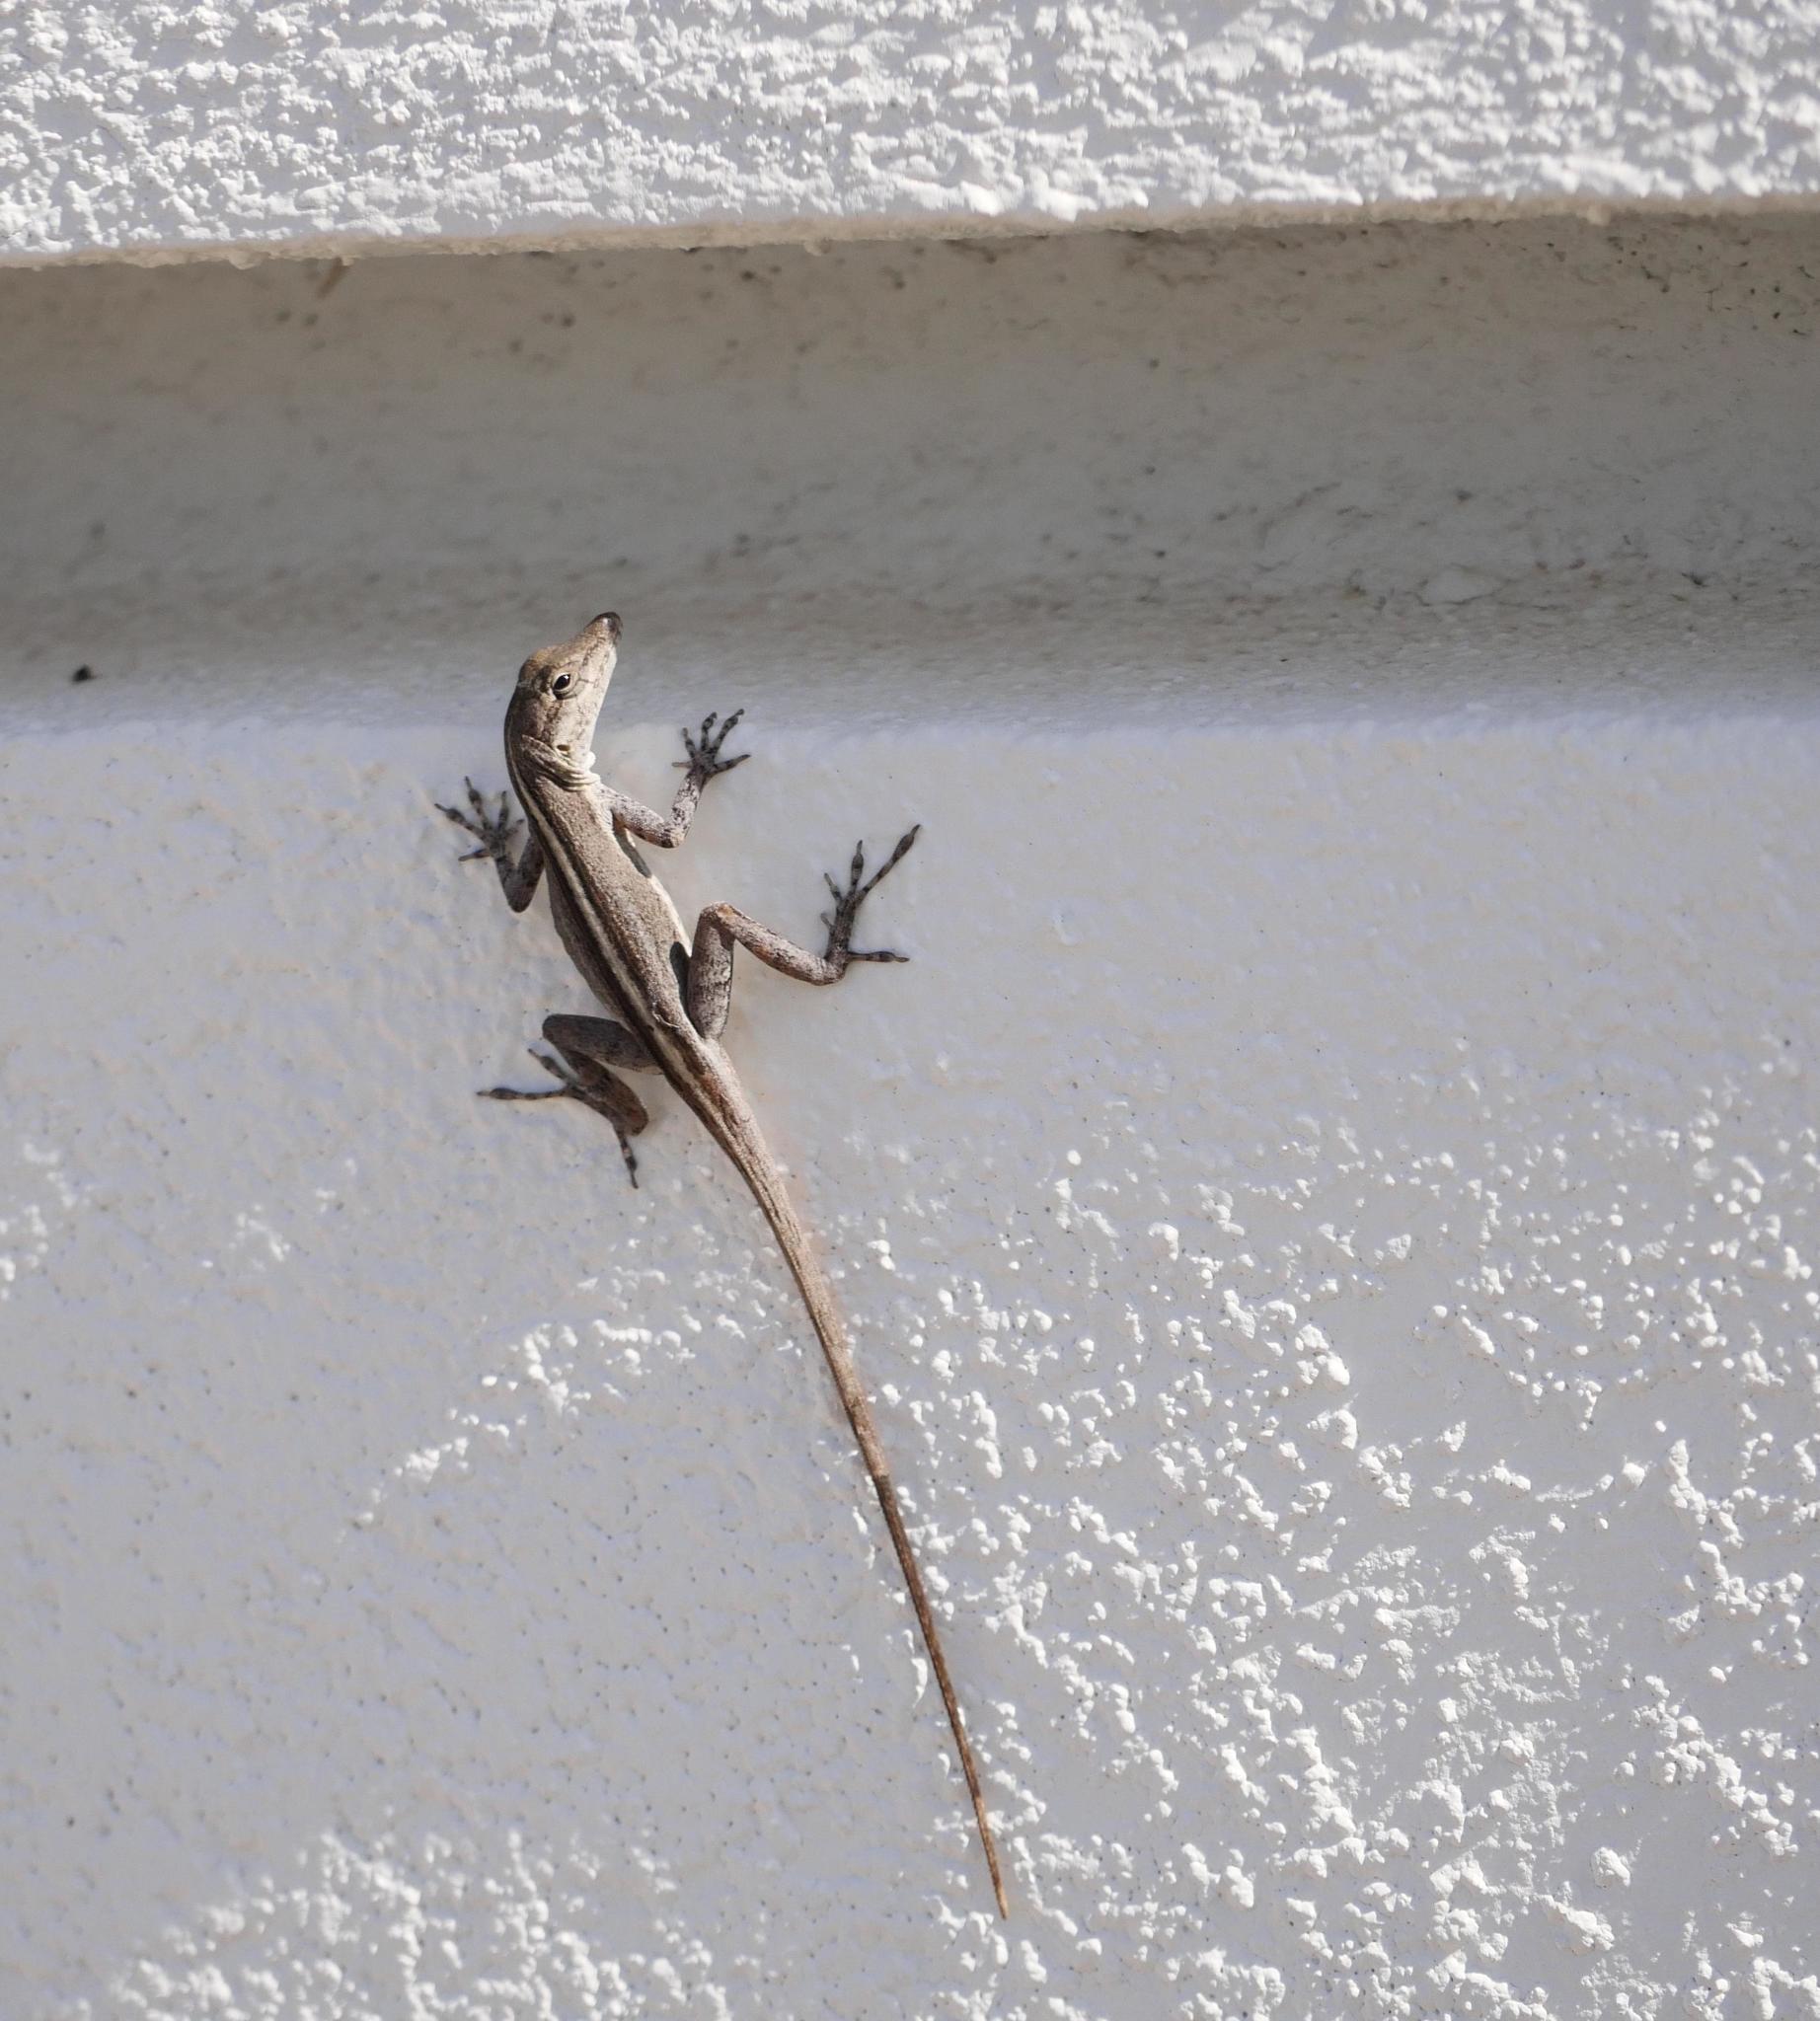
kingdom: Animalia
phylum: Chordata
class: Squamata
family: Dactyloidae
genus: Anolis
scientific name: Anolis scriptus
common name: Silver key anole
